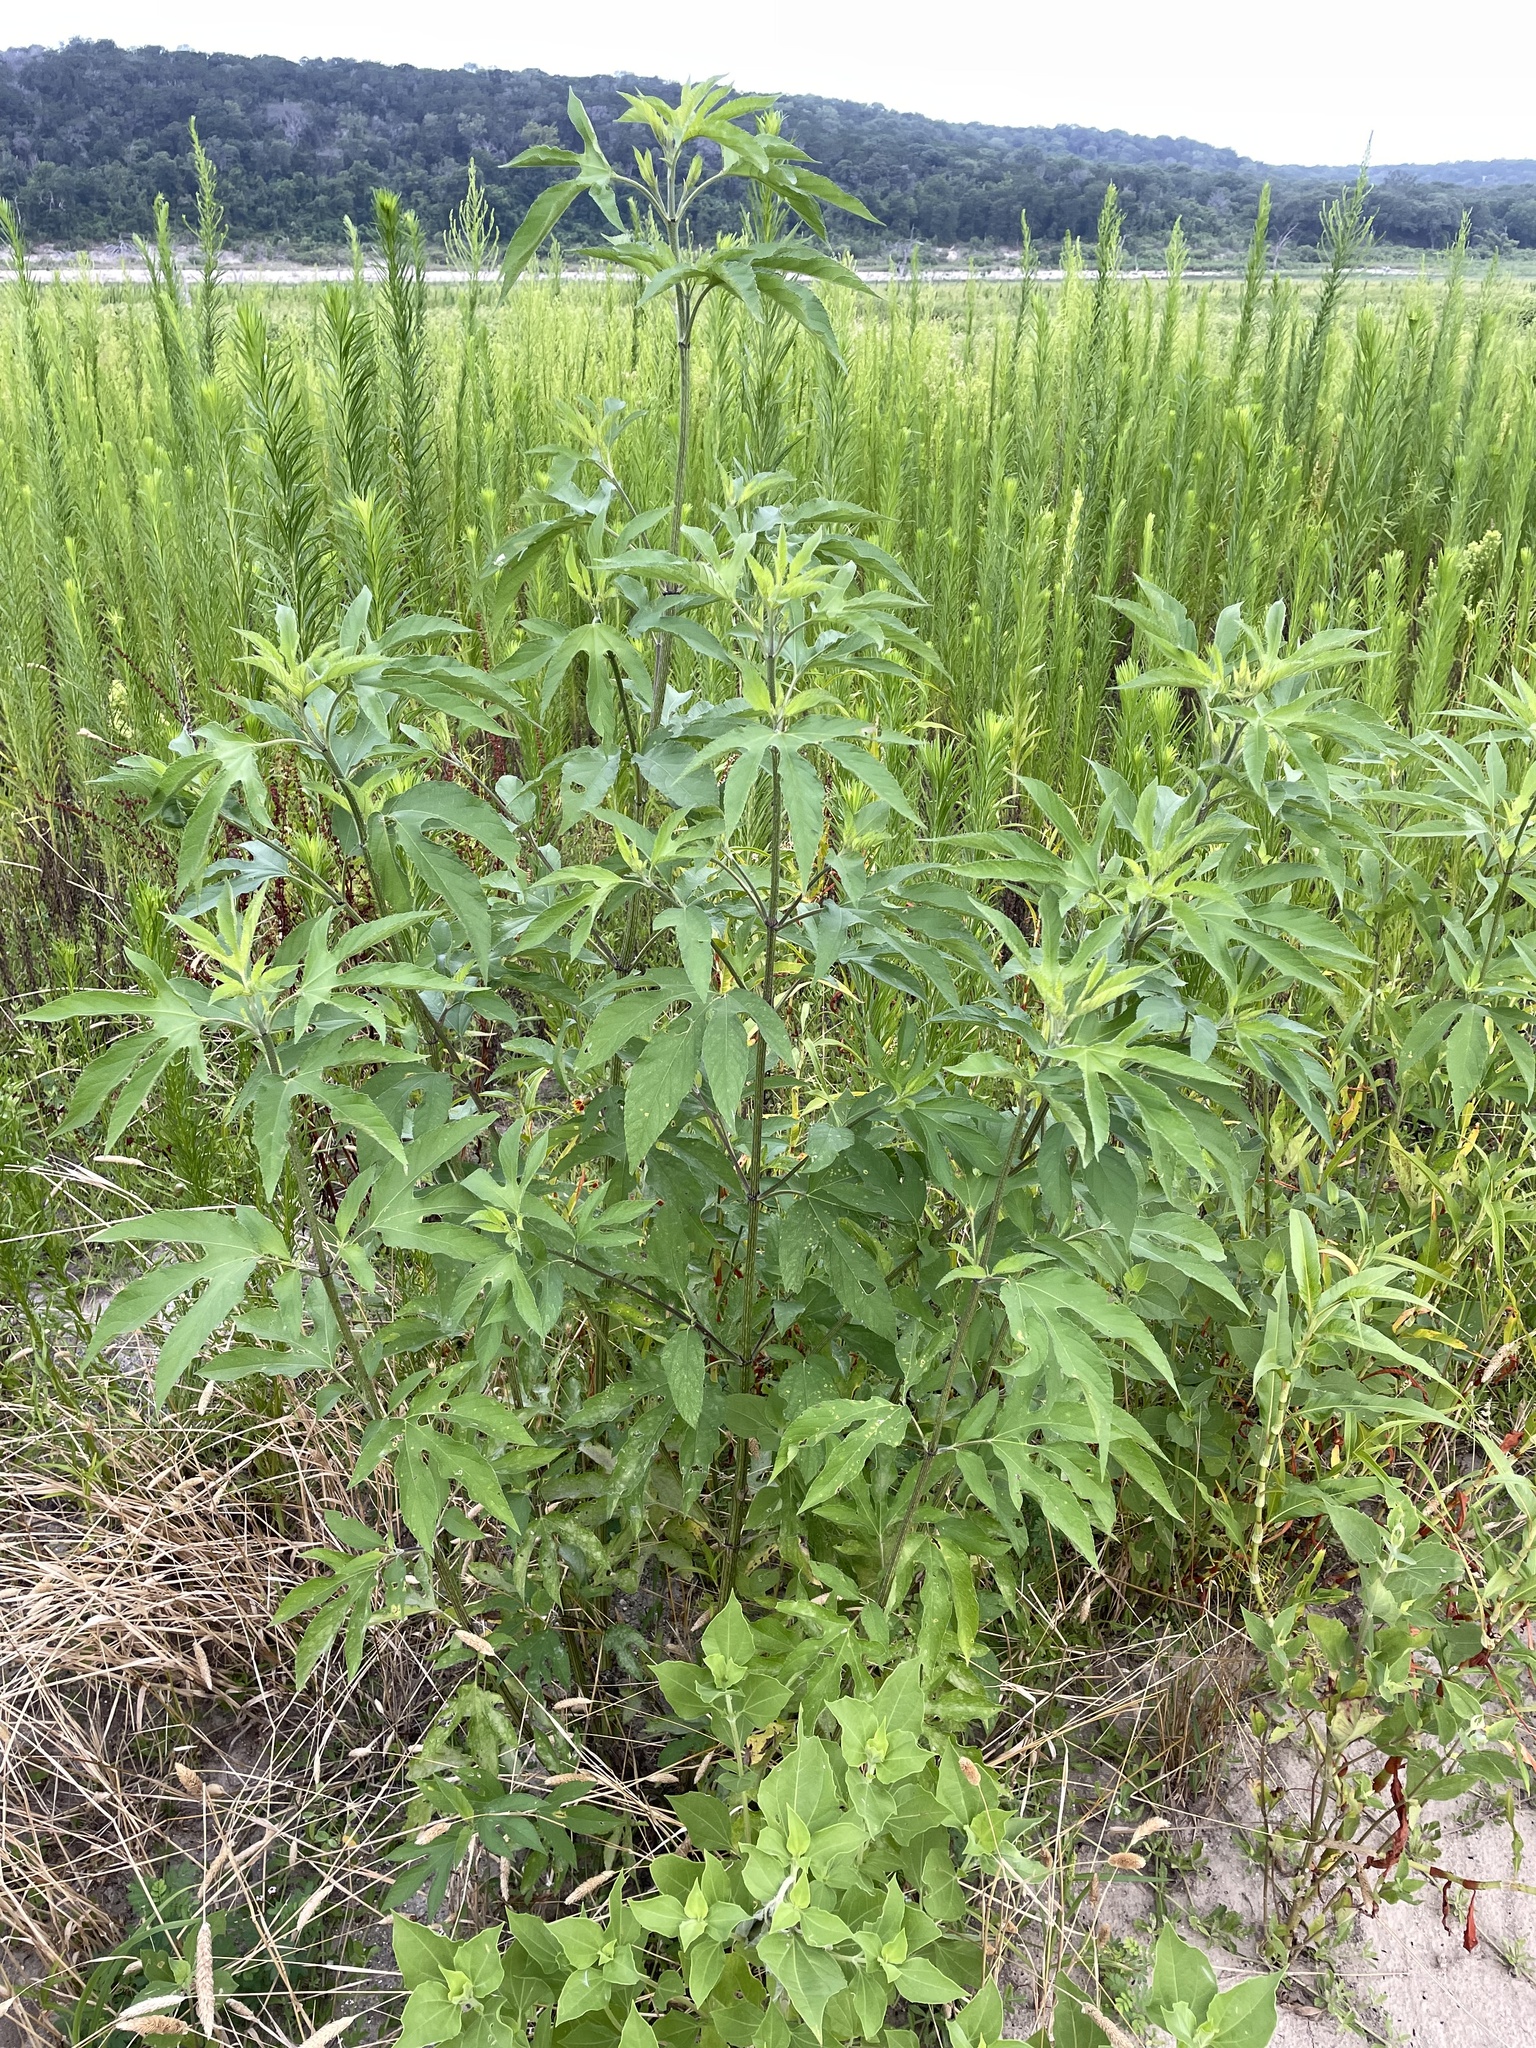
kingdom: Plantae
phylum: Tracheophyta
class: Magnoliopsida
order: Asterales
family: Asteraceae
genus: Ambrosia
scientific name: Ambrosia trifida
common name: Giant ragweed
